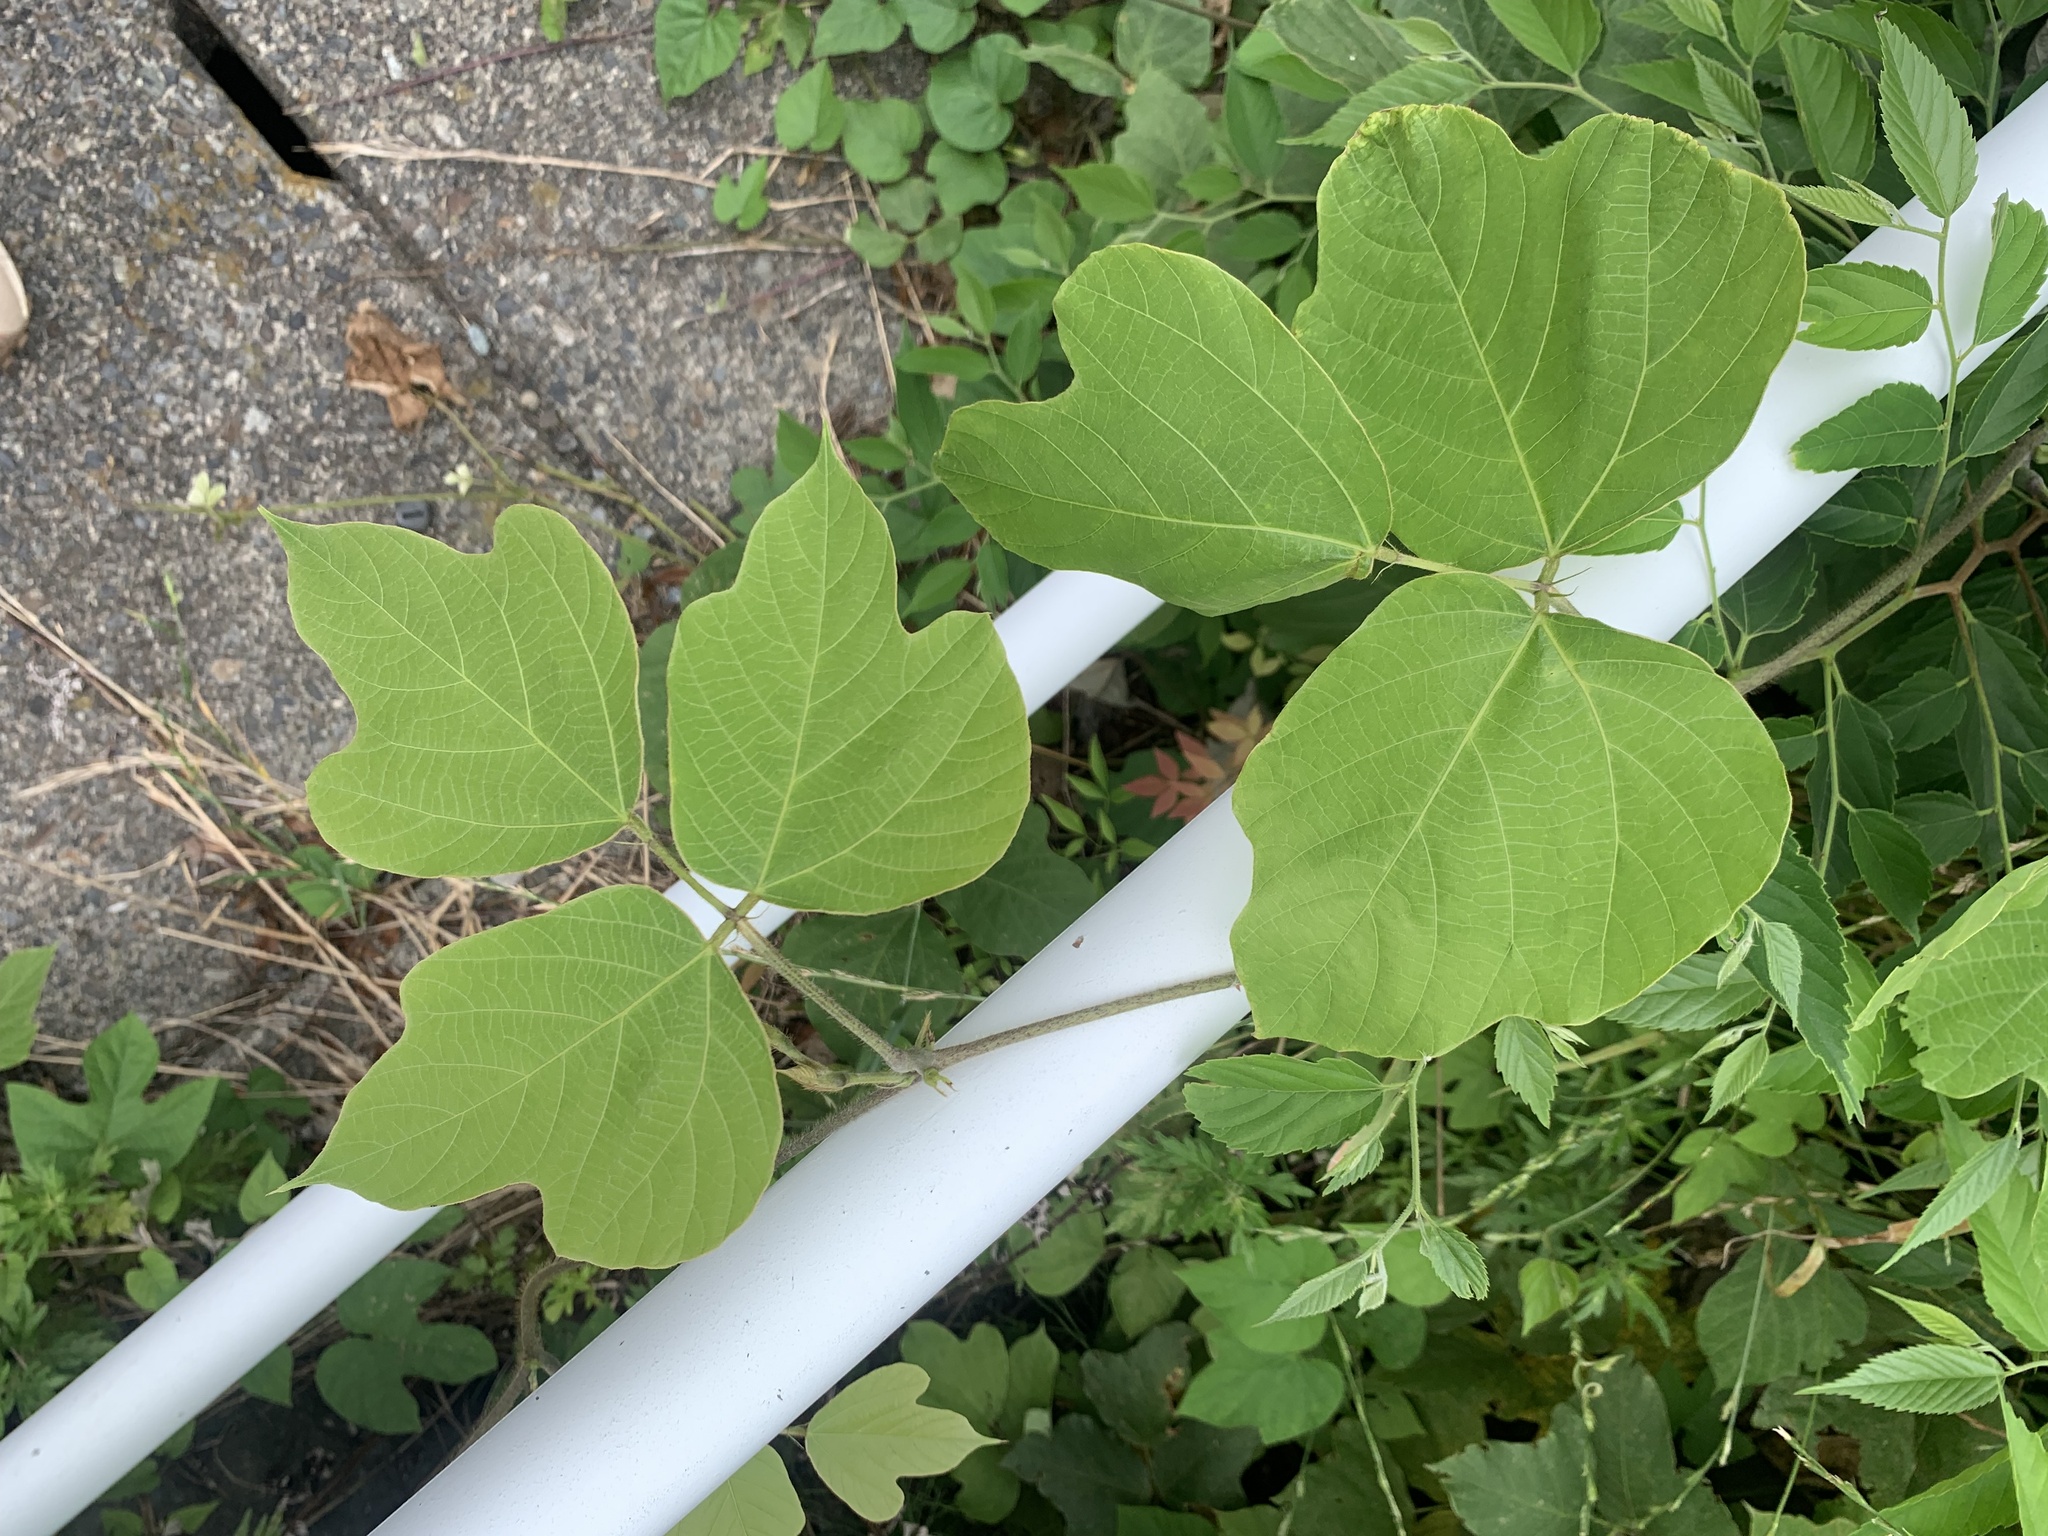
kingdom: Plantae
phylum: Tracheophyta
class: Magnoliopsida
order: Fabales
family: Fabaceae
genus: Pueraria
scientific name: Pueraria montana
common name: Kudzu
